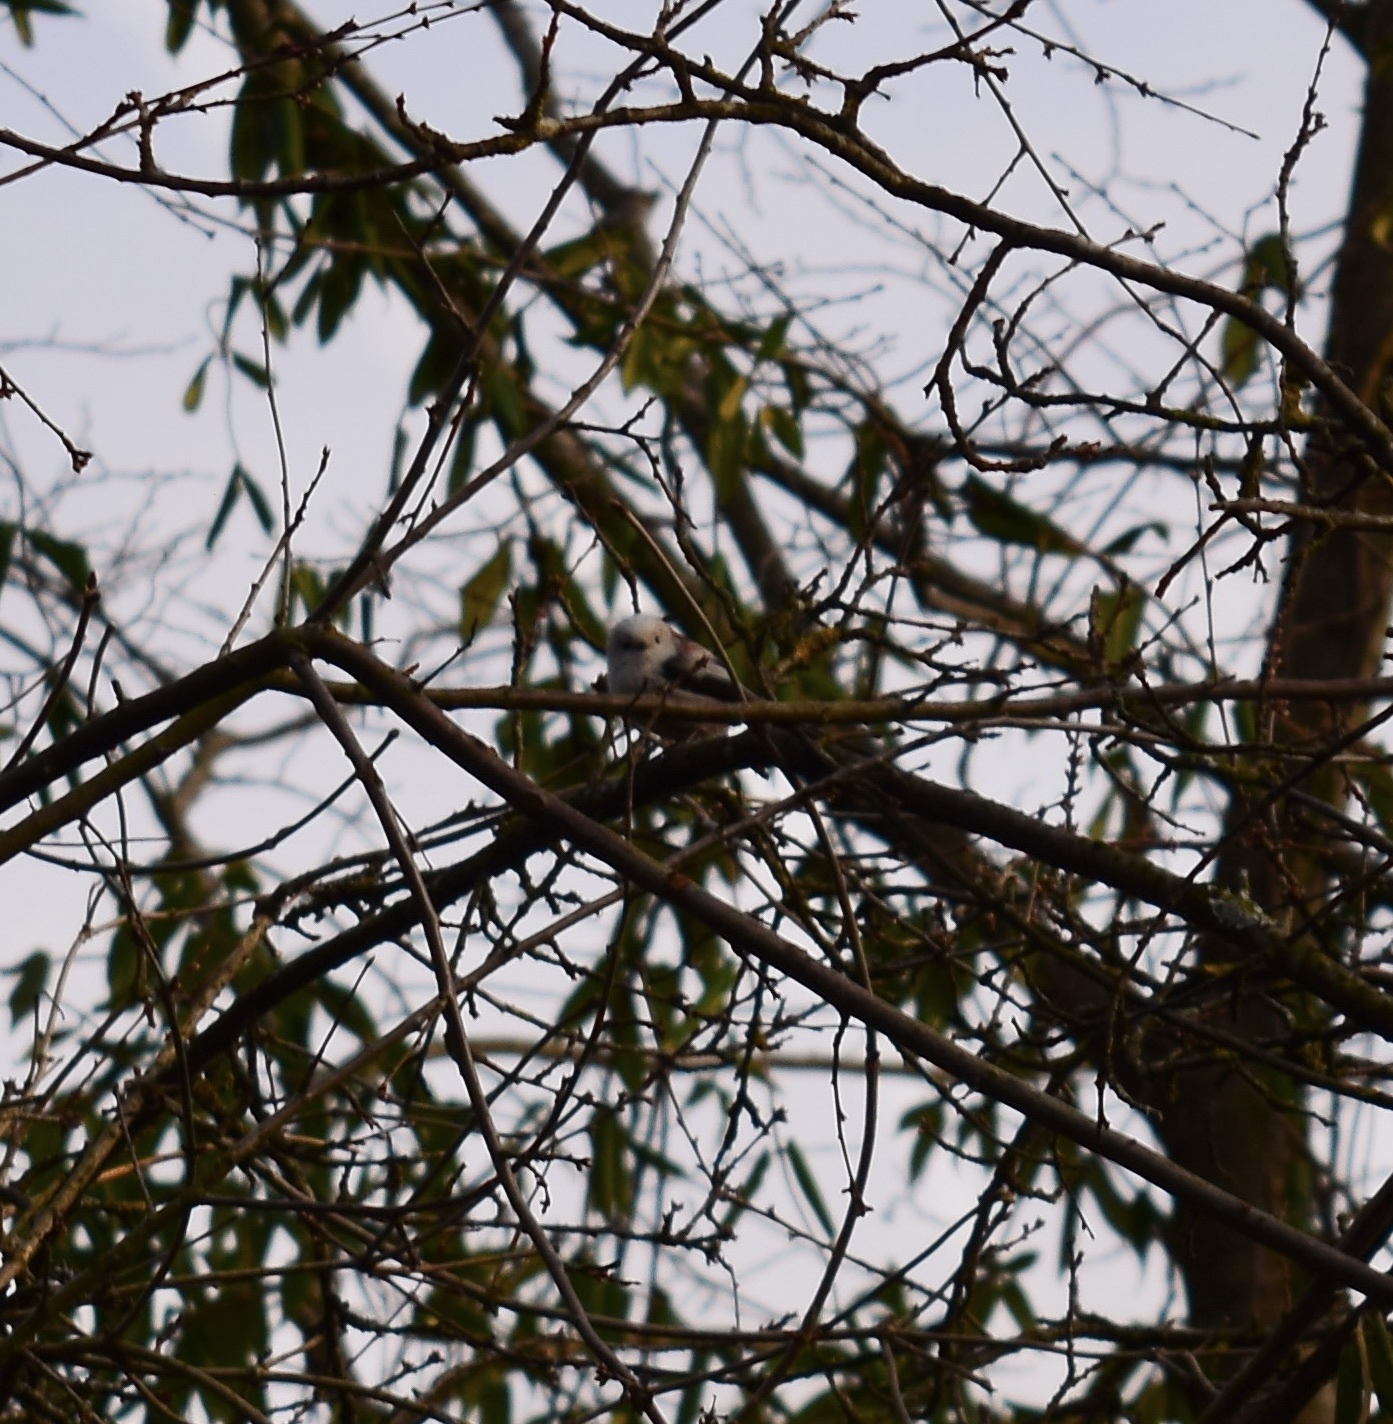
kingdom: Animalia
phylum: Chordata
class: Aves
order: Passeriformes
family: Aegithalidae
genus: Aegithalos
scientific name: Aegithalos caudatus
